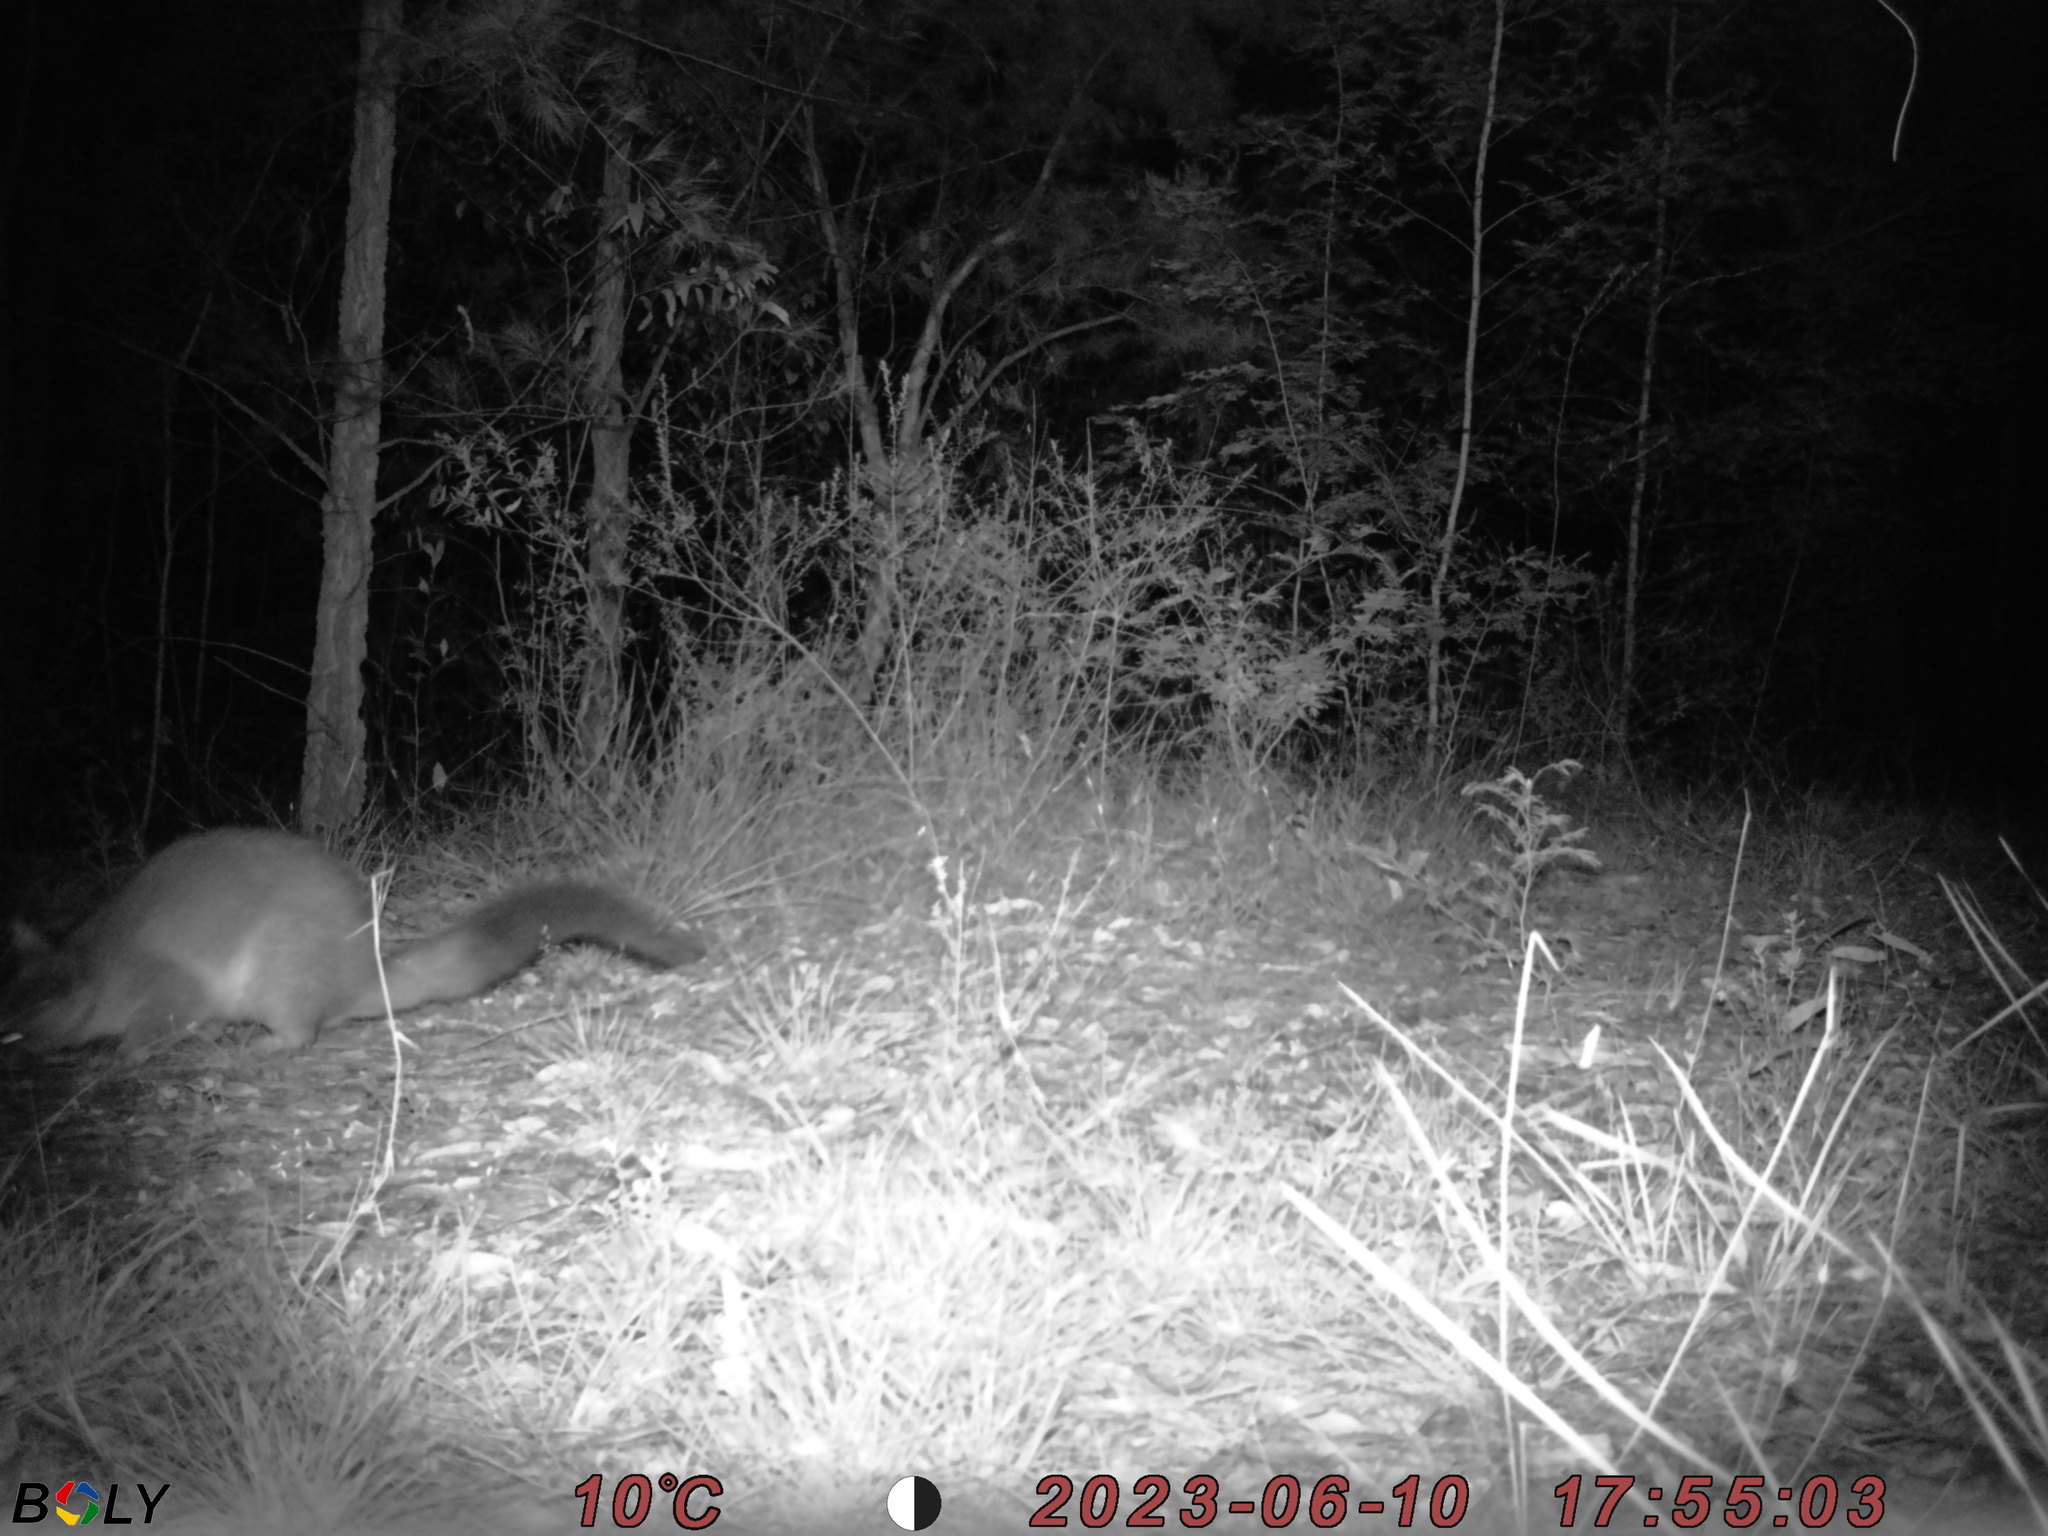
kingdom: Animalia
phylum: Chordata
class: Mammalia
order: Diprotodontia
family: Phalangeridae
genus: Trichosurus
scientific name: Trichosurus vulpecula
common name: Common brushtail
